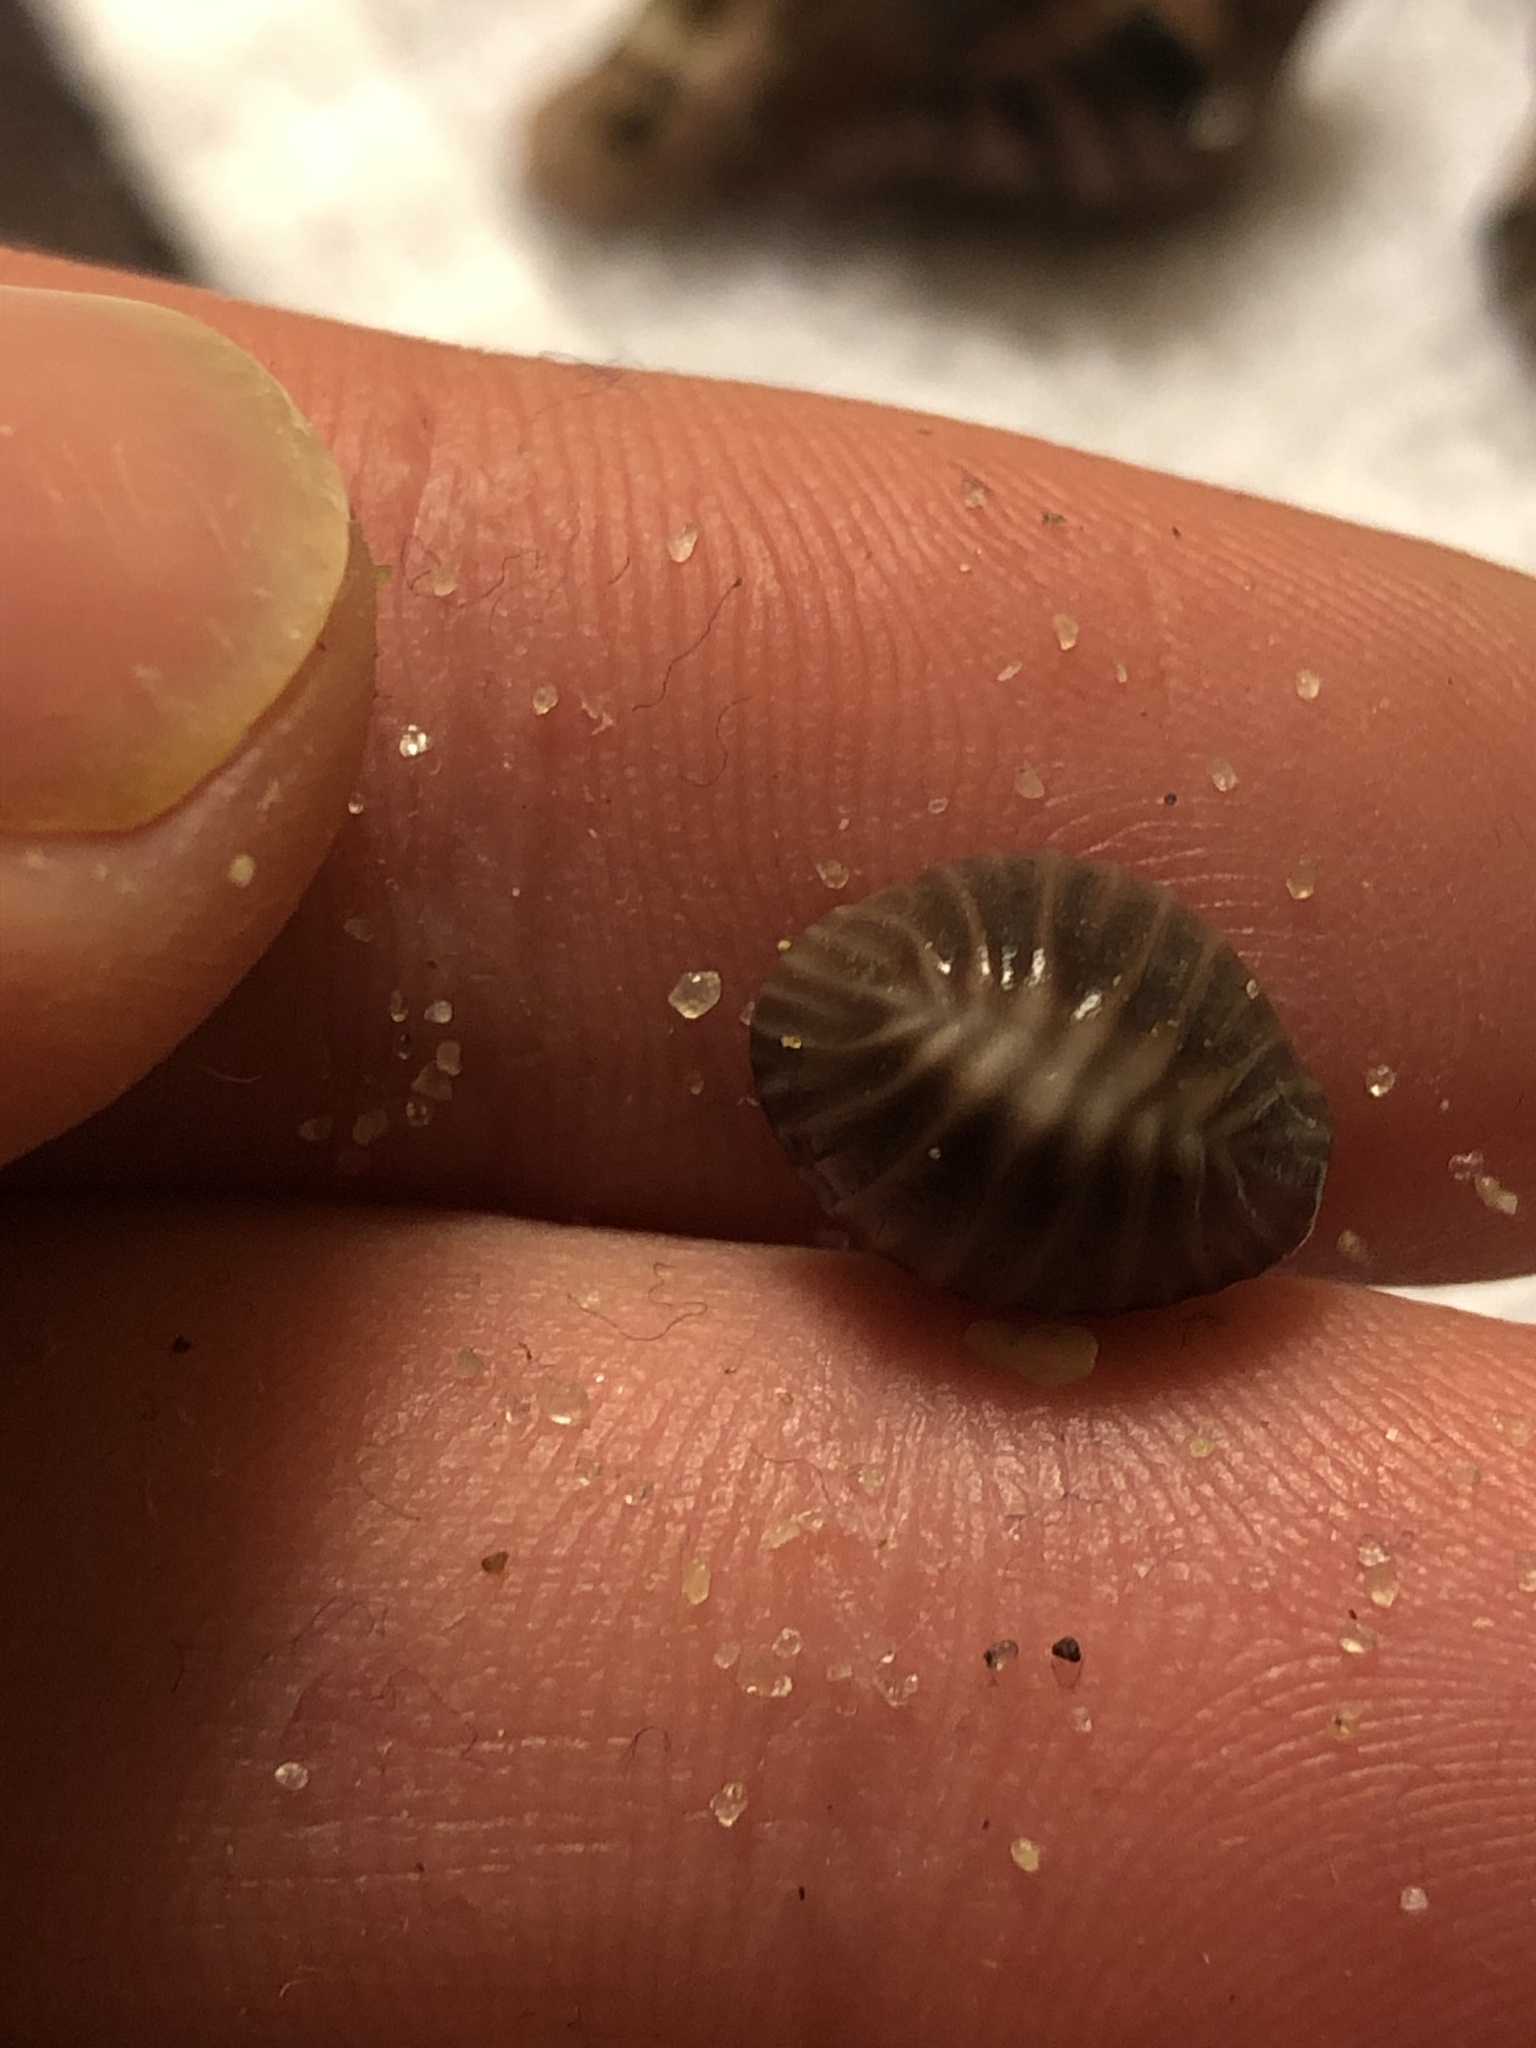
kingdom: Animalia
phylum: Mollusca
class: Gastropoda
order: Littorinimorpha
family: Triviidae
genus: Pseudopusula
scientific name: Pseudopusula californiana
